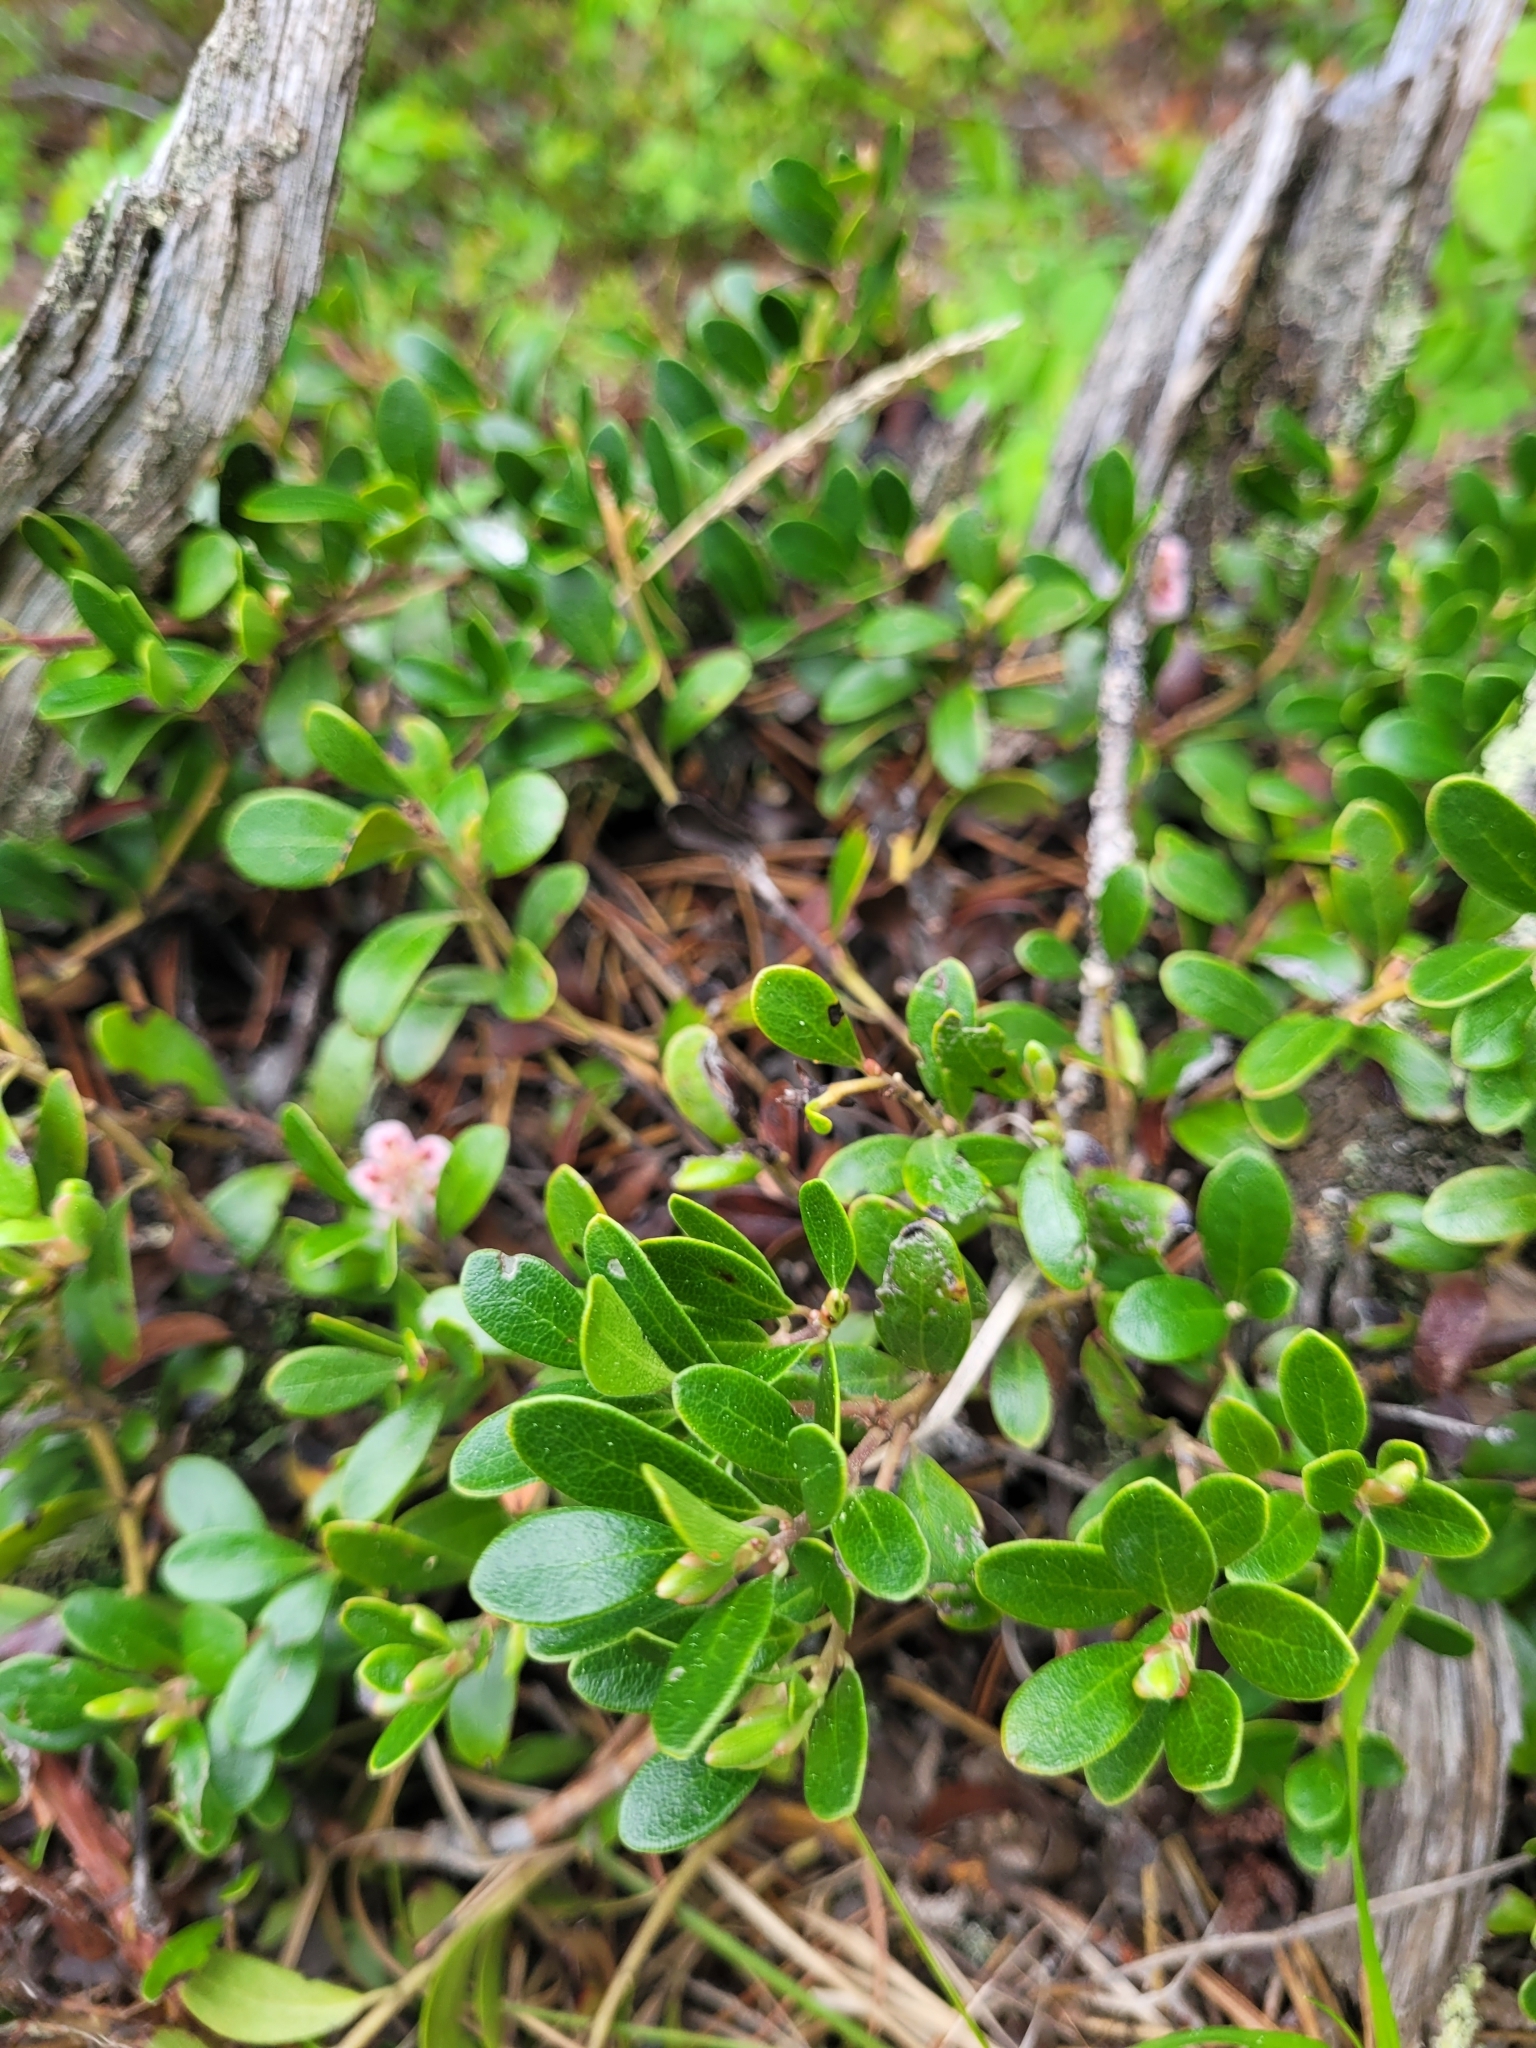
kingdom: Plantae
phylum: Tracheophyta
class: Magnoliopsida
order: Ericales
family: Ericaceae
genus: Arctostaphylos
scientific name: Arctostaphylos uva-ursi
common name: Bearberry
